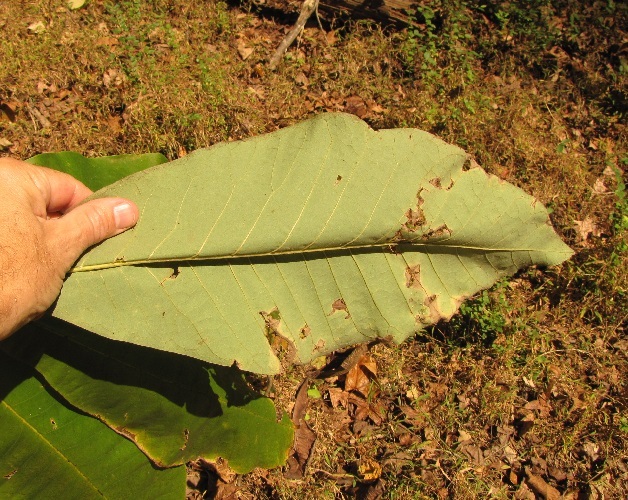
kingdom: Plantae
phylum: Tracheophyta
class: Magnoliopsida
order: Magnoliales
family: Magnoliaceae
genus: Magnolia
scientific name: Magnolia tripetala
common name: Umbrella magnolia
